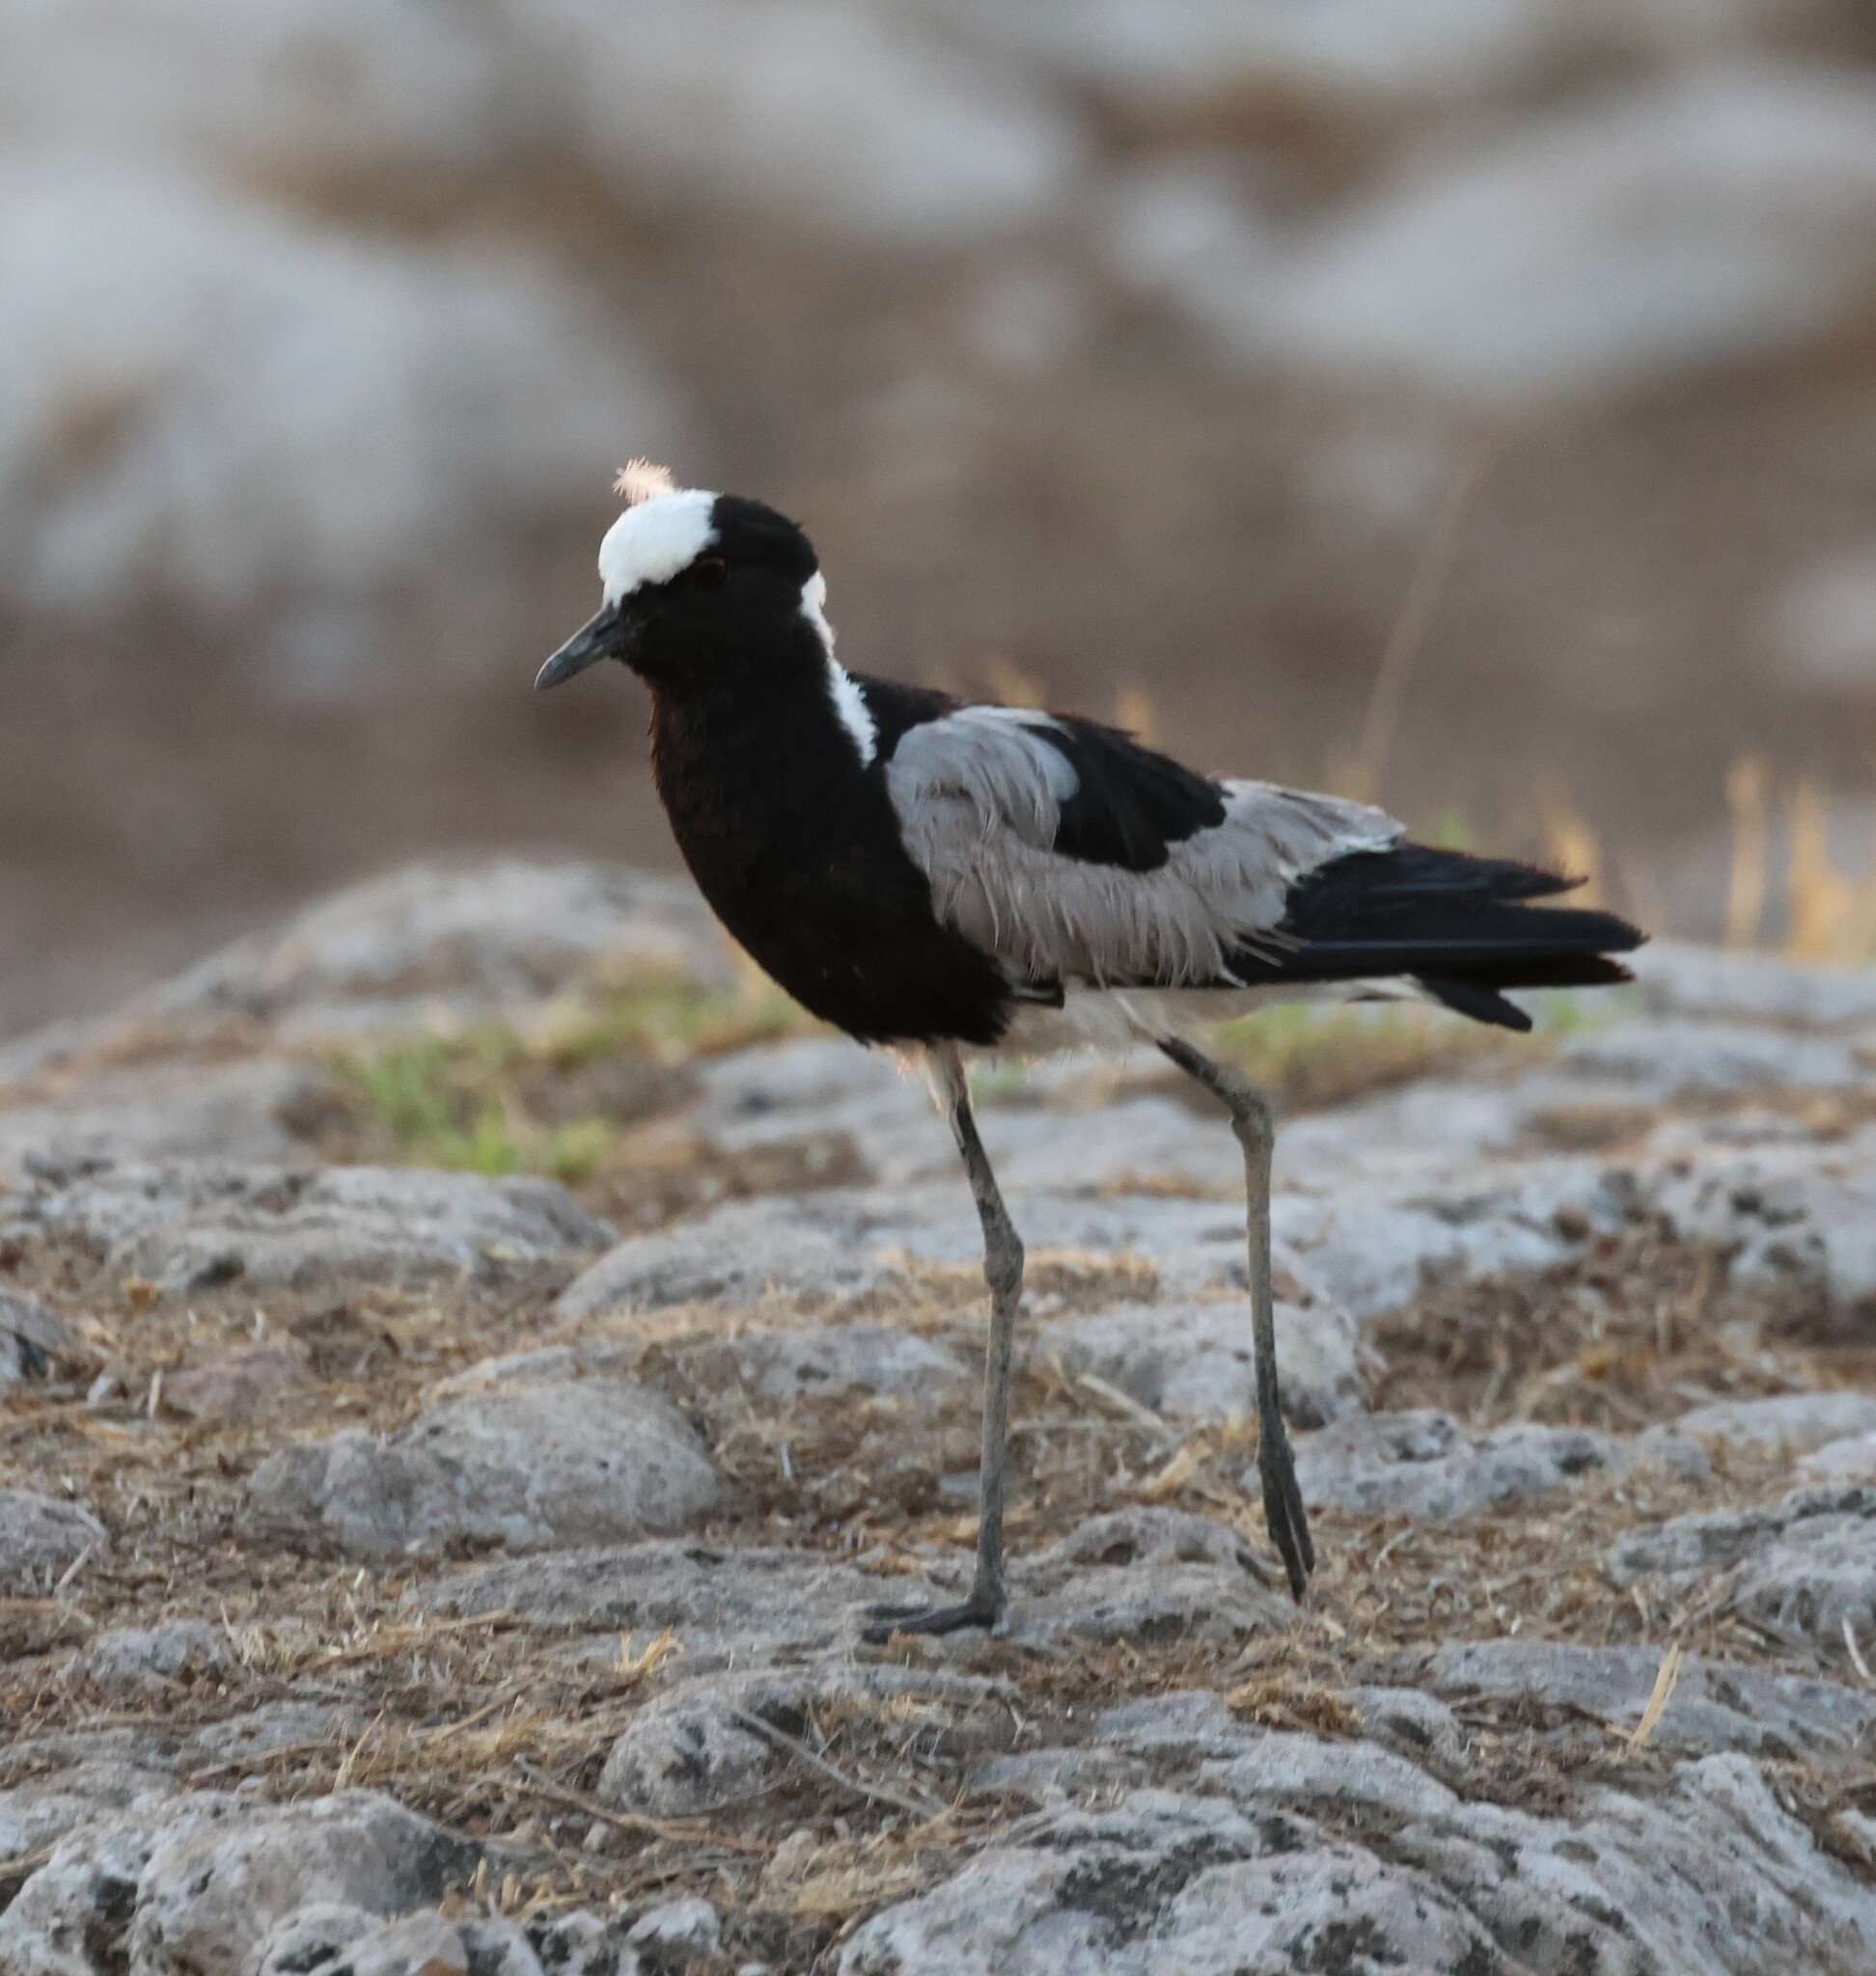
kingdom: Animalia
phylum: Chordata
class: Aves
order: Charadriiformes
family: Charadriidae
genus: Vanellus
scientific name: Vanellus armatus
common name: Blacksmith lapwing
